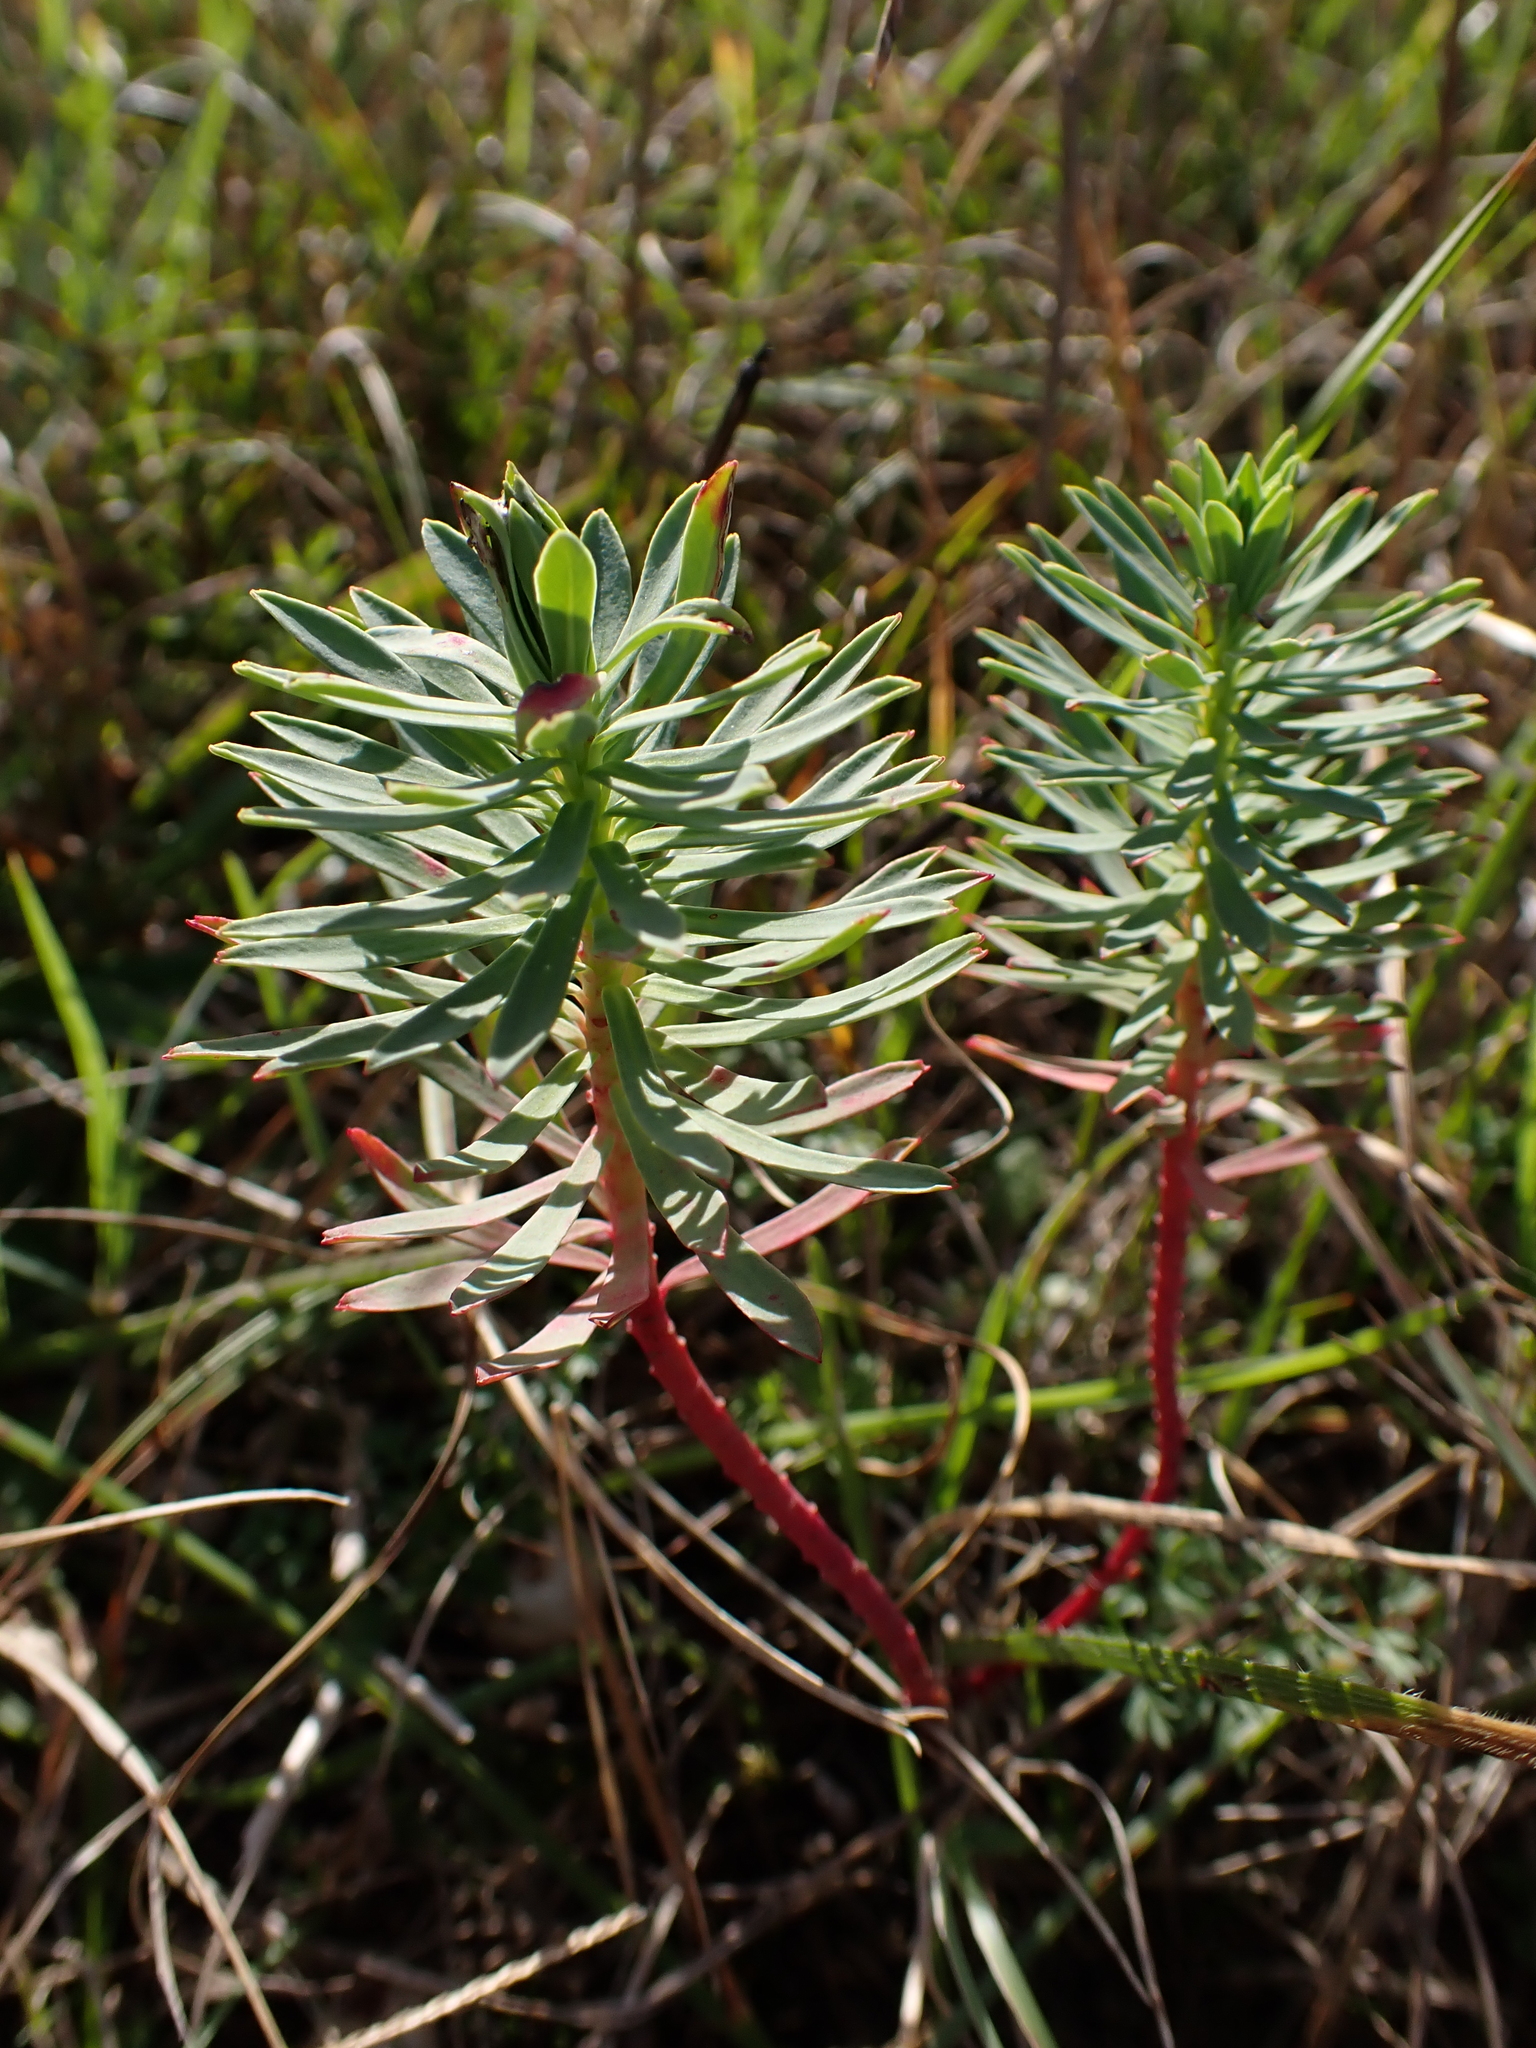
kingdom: Plantae
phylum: Tracheophyta
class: Magnoliopsida
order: Malpighiales
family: Euphorbiaceae
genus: Euphorbia
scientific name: Euphorbia portlandica
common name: Portland spurge
